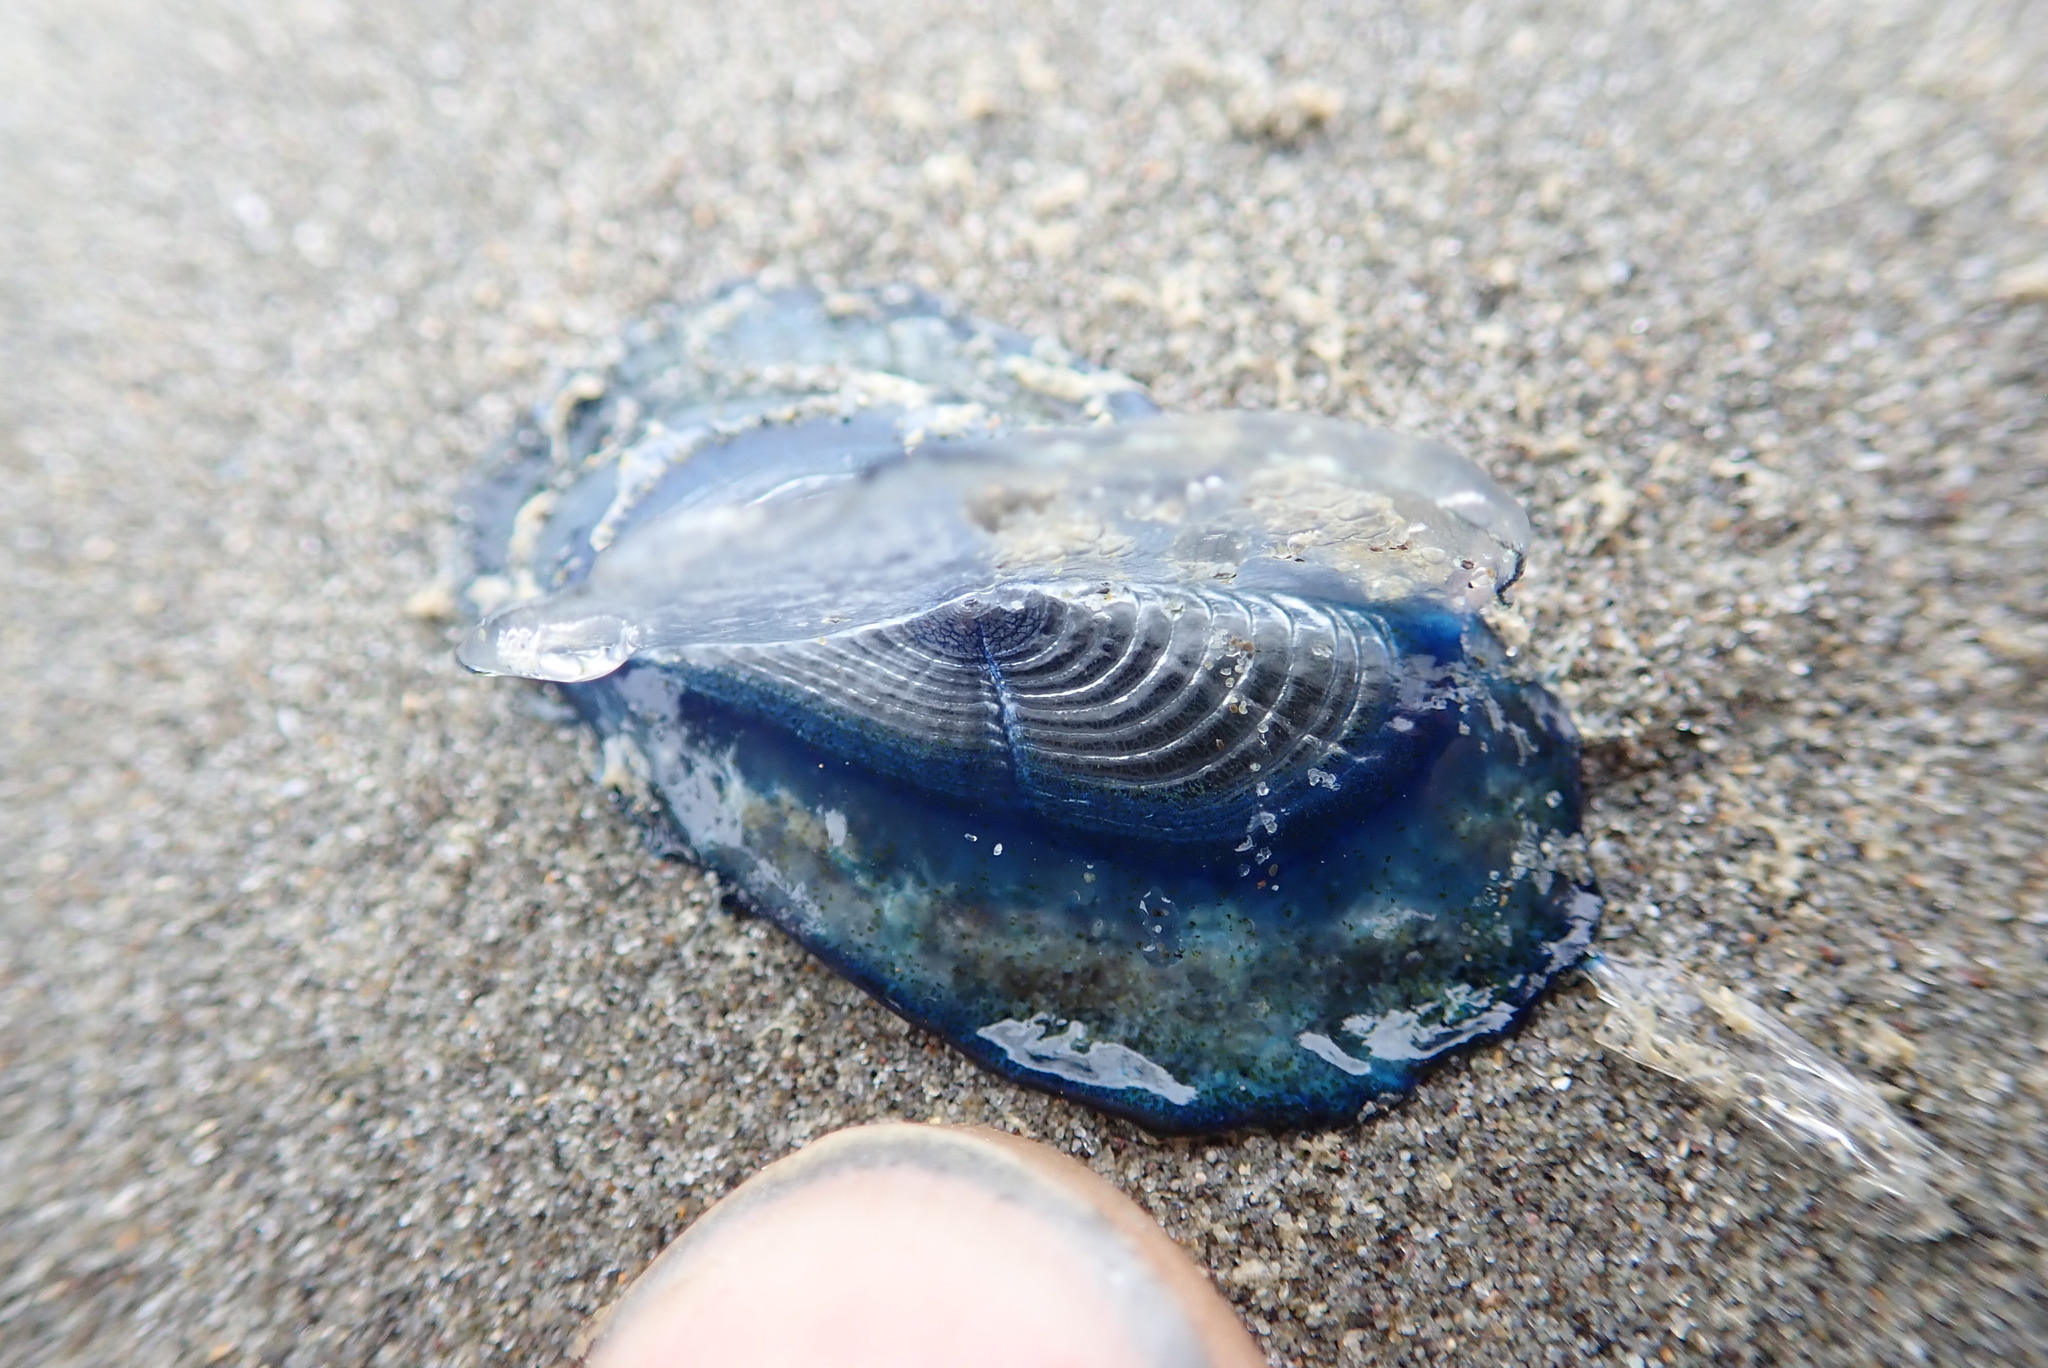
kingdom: Animalia
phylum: Cnidaria
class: Hydrozoa
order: Anthoathecata
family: Porpitidae
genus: Velella
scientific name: Velella velella
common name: By-the-wind-sailor
